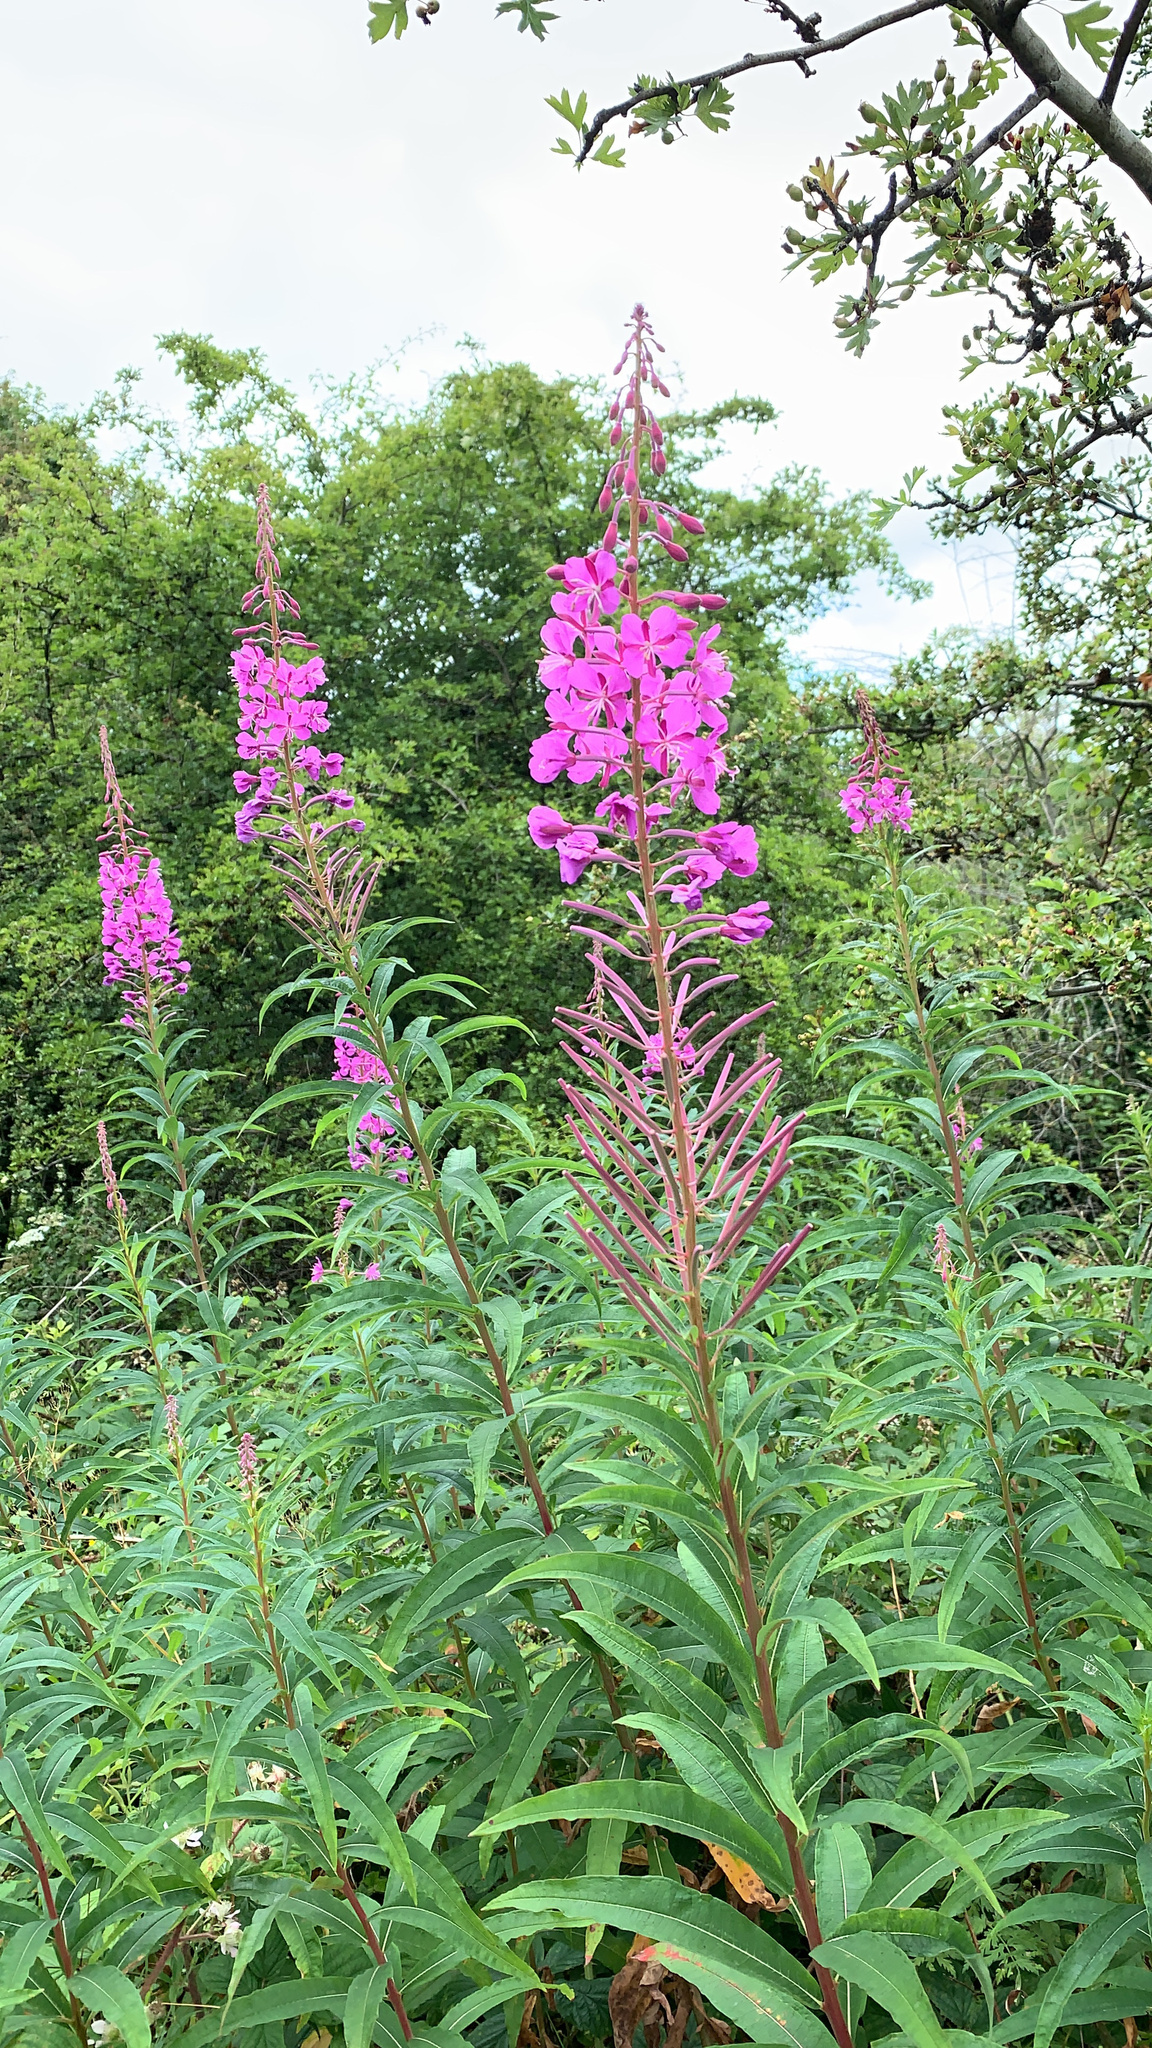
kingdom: Plantae
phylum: Tracheophyta
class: Magnoliopsida
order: Myrtales
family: Onagraceae
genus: Chamaenerion
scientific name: Chamaenerion angustifolium
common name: Fireweed
